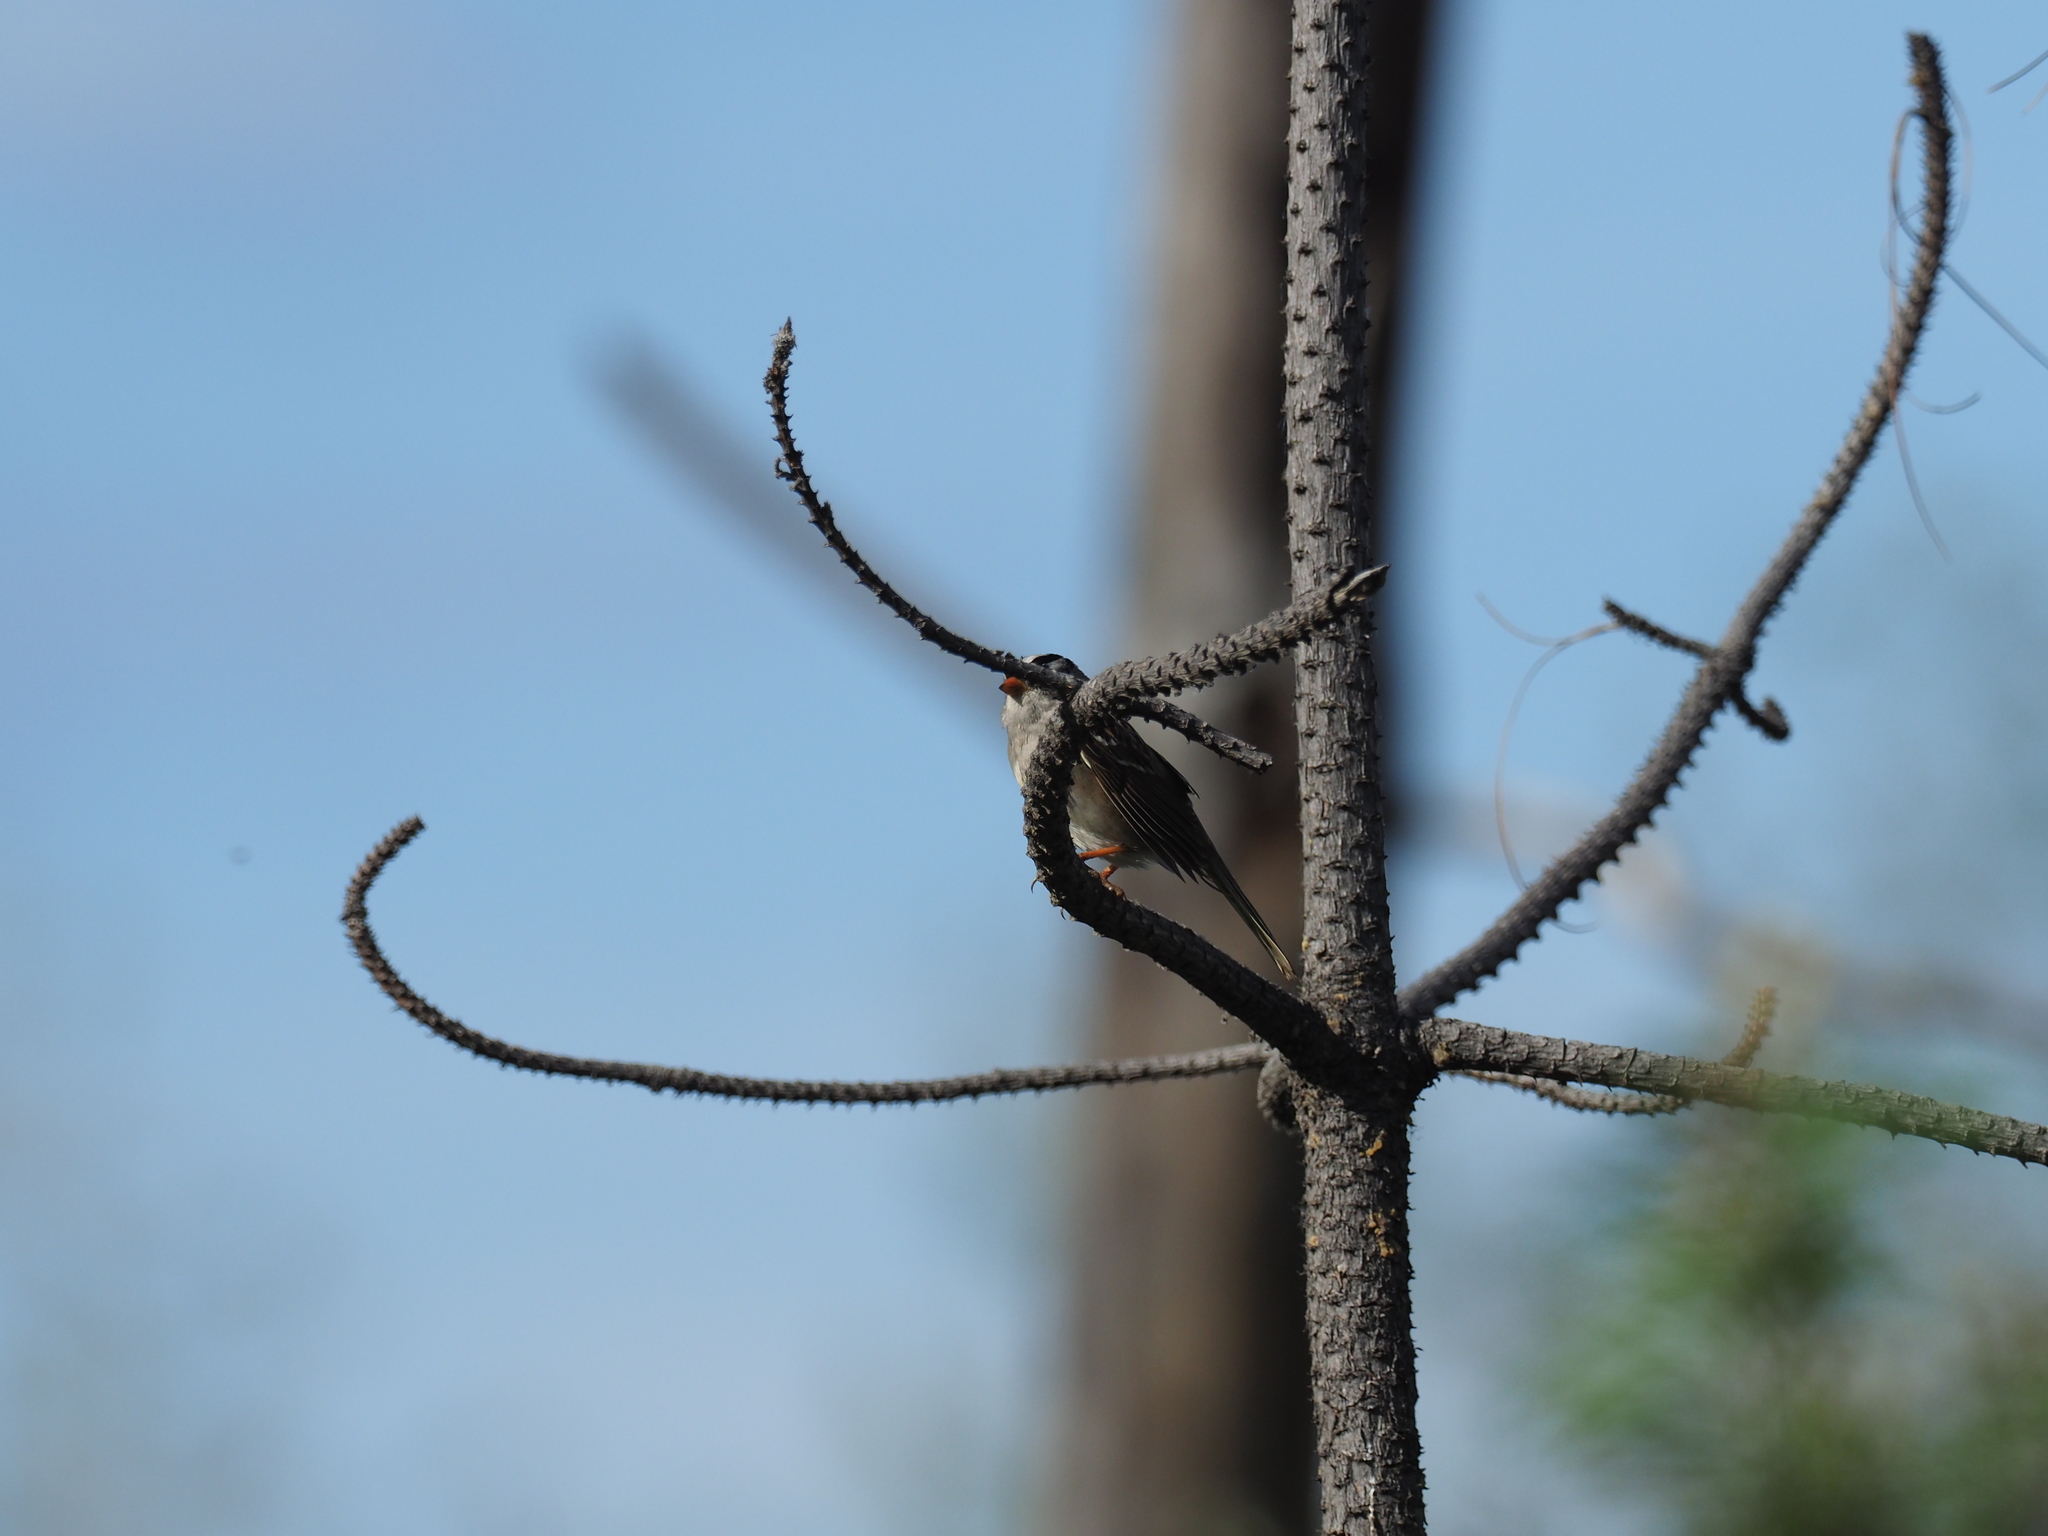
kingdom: Animalia
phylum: Chordata
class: Aves
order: Passeriformes
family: Passerellidae
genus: Zonotrichia
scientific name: Zonotrichia leucophrys
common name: White-crowned sparrow
